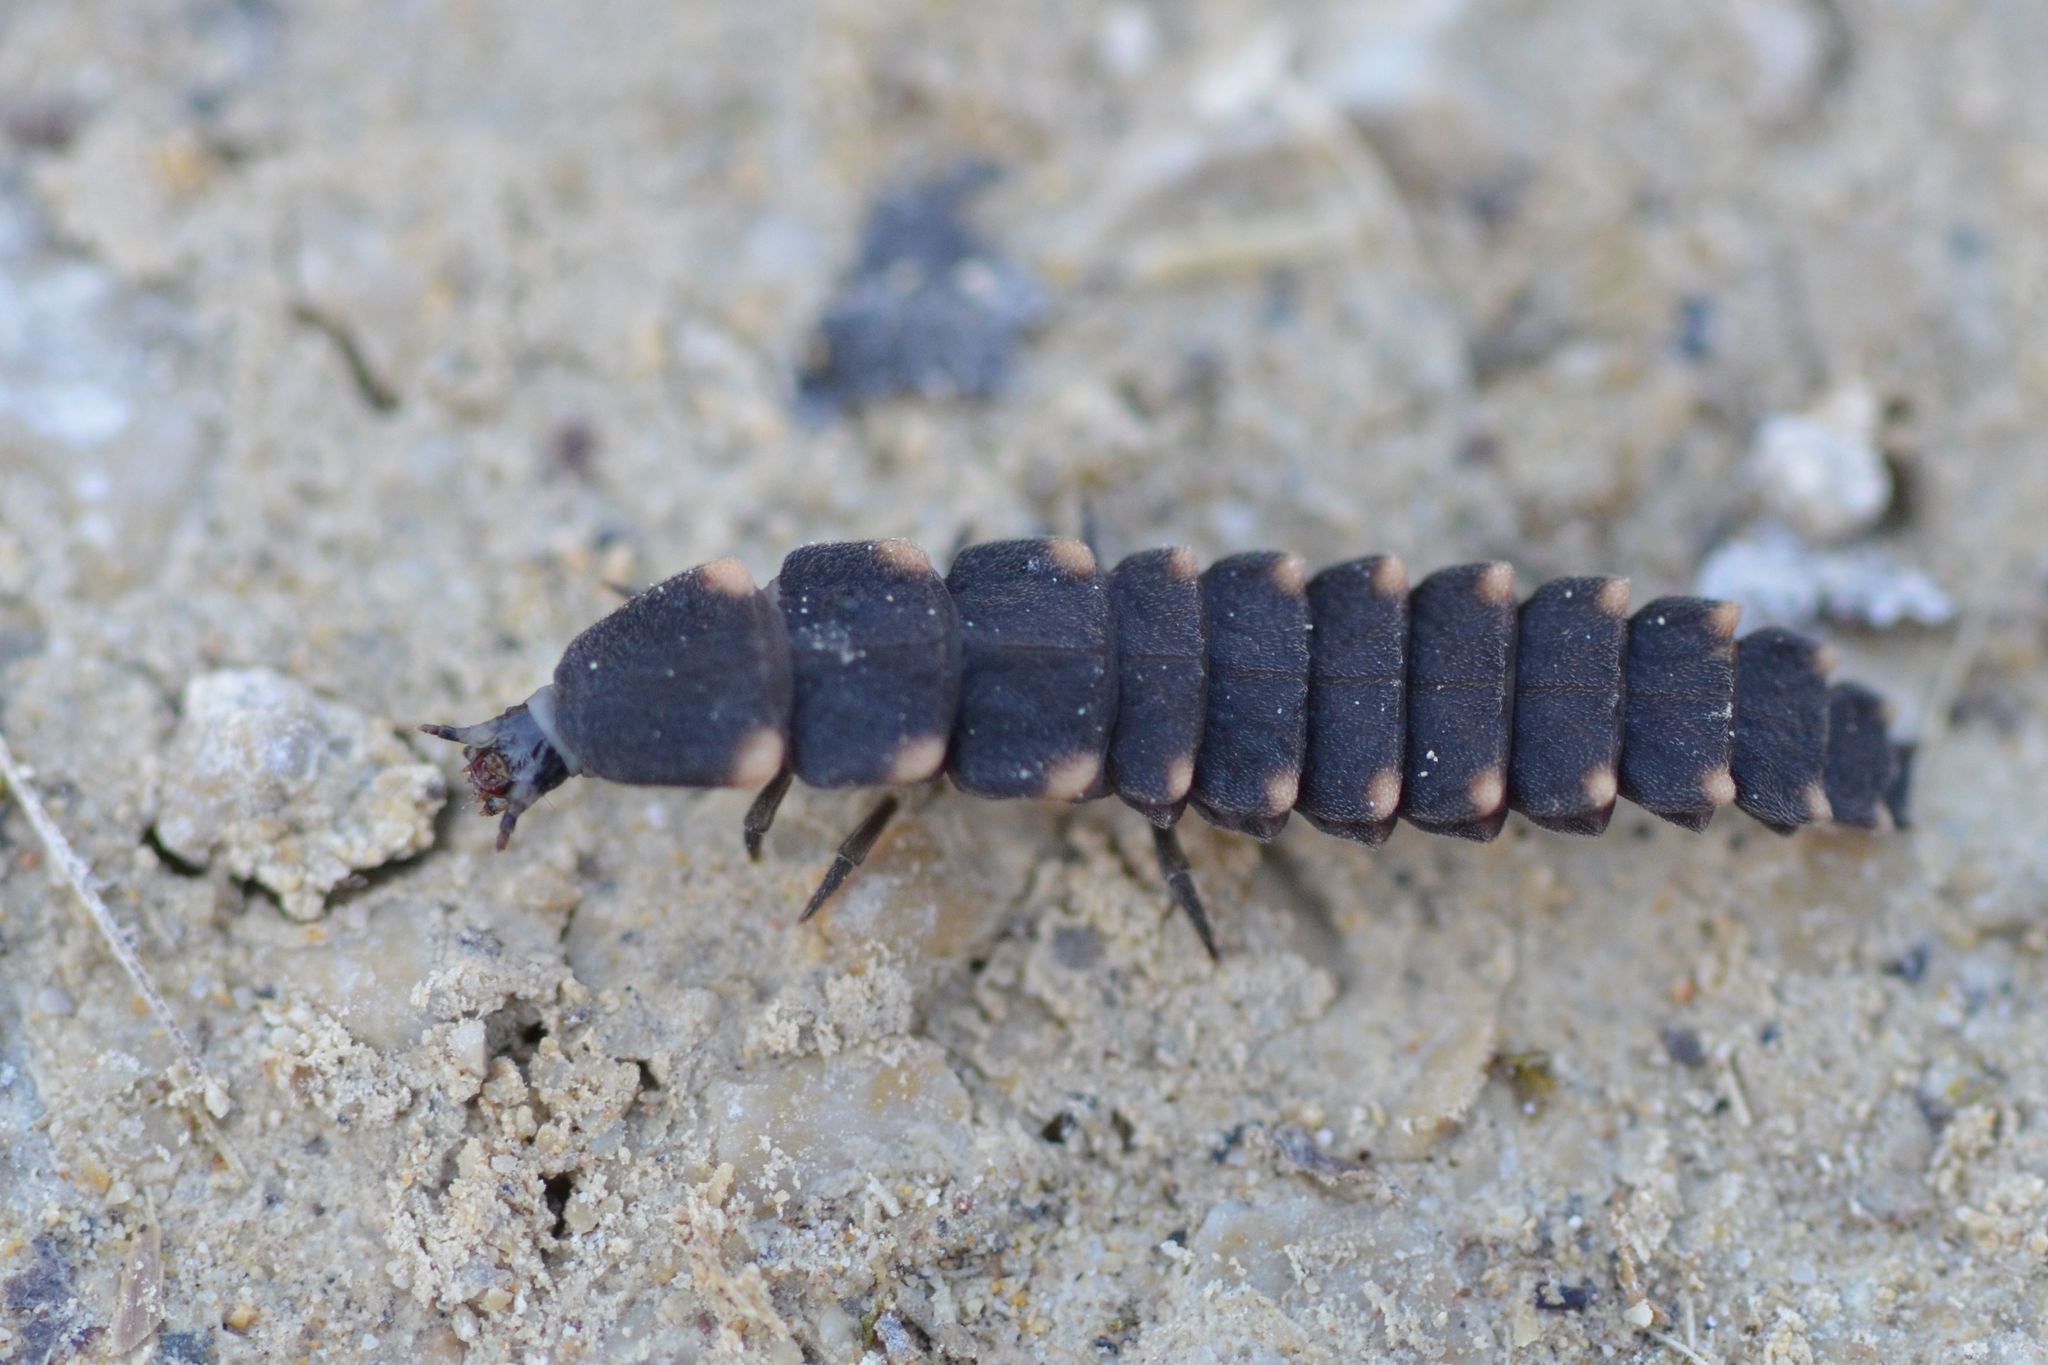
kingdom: Animalia
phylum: Arthropoda
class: Insecta
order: Coleoptera
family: Lampyridae
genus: Lampyris
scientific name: Lampyris noctiluca
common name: Glow-worm
